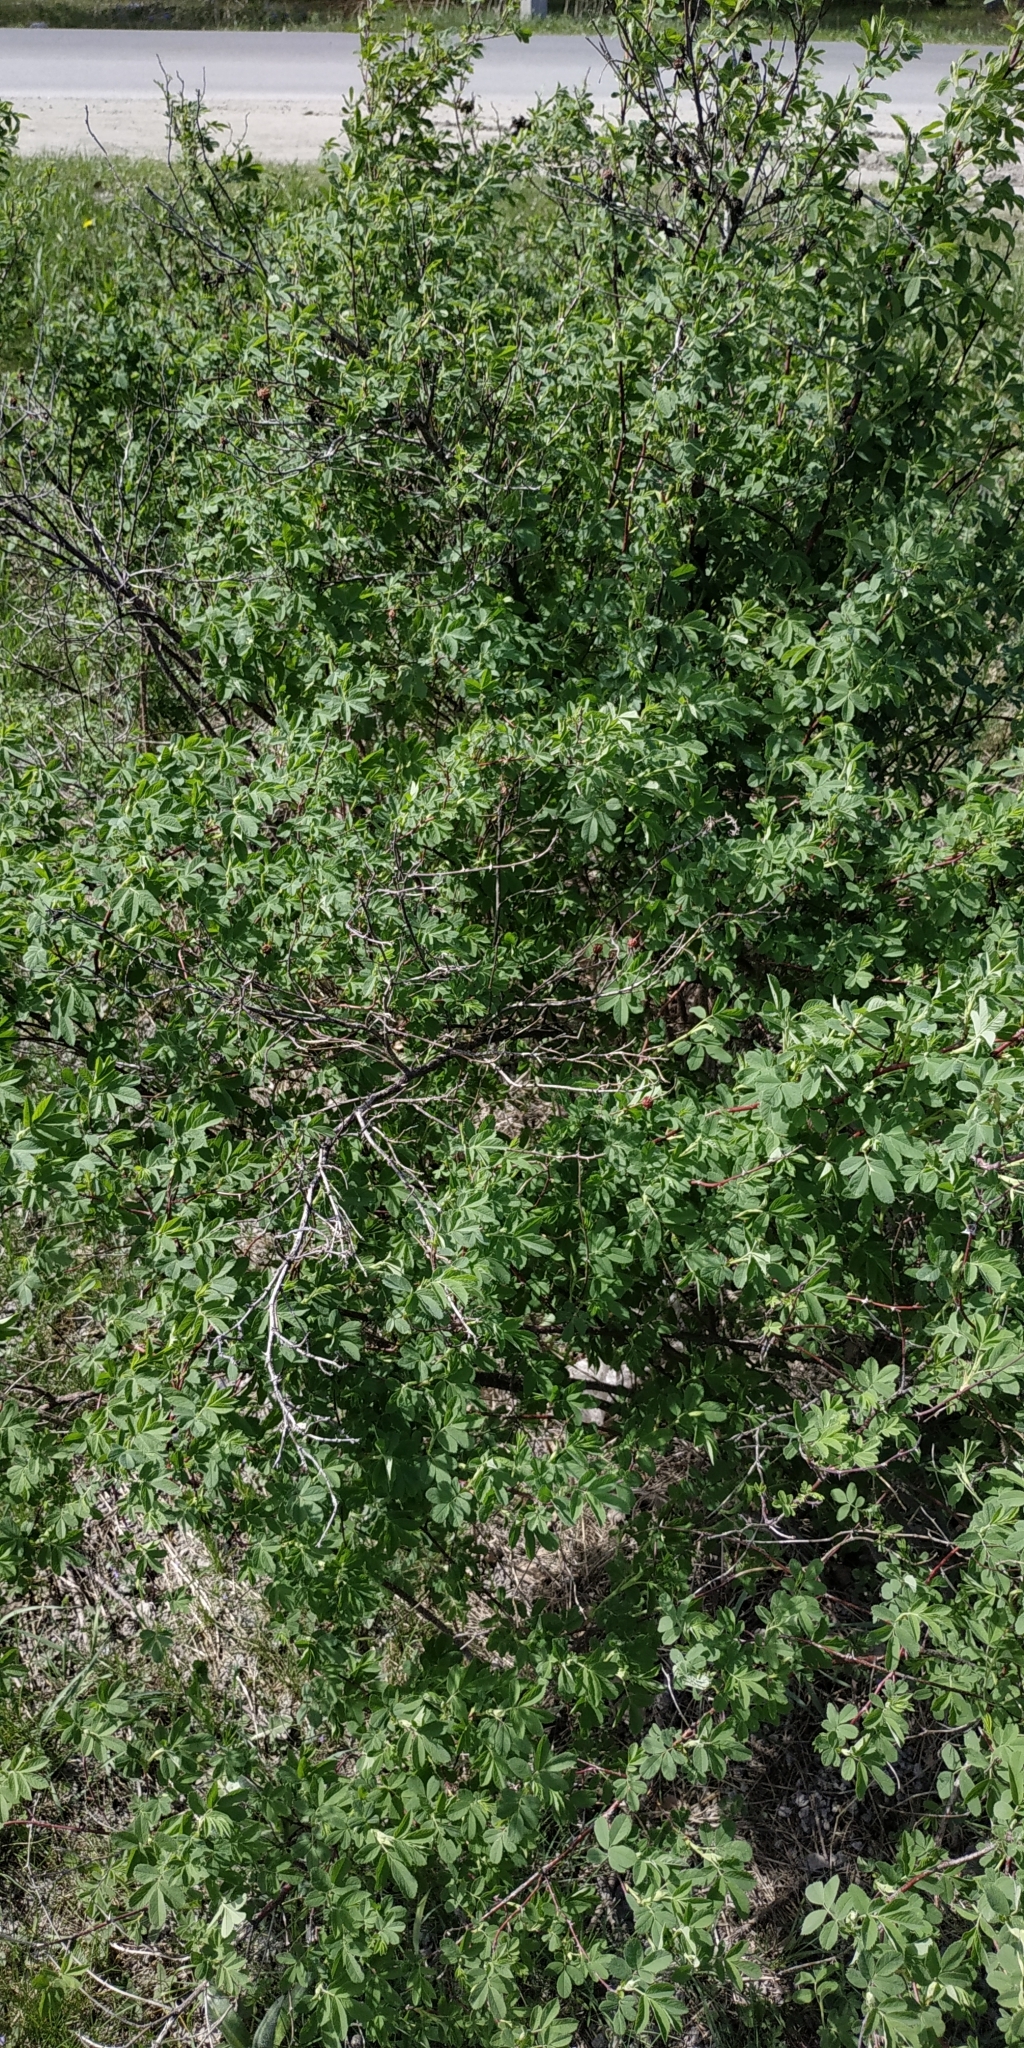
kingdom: Plantae
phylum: Tracheophyta
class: Magnoliopsida
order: Rosales
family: Rosaceae
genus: Rosa
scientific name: Rosa glabrifolia
